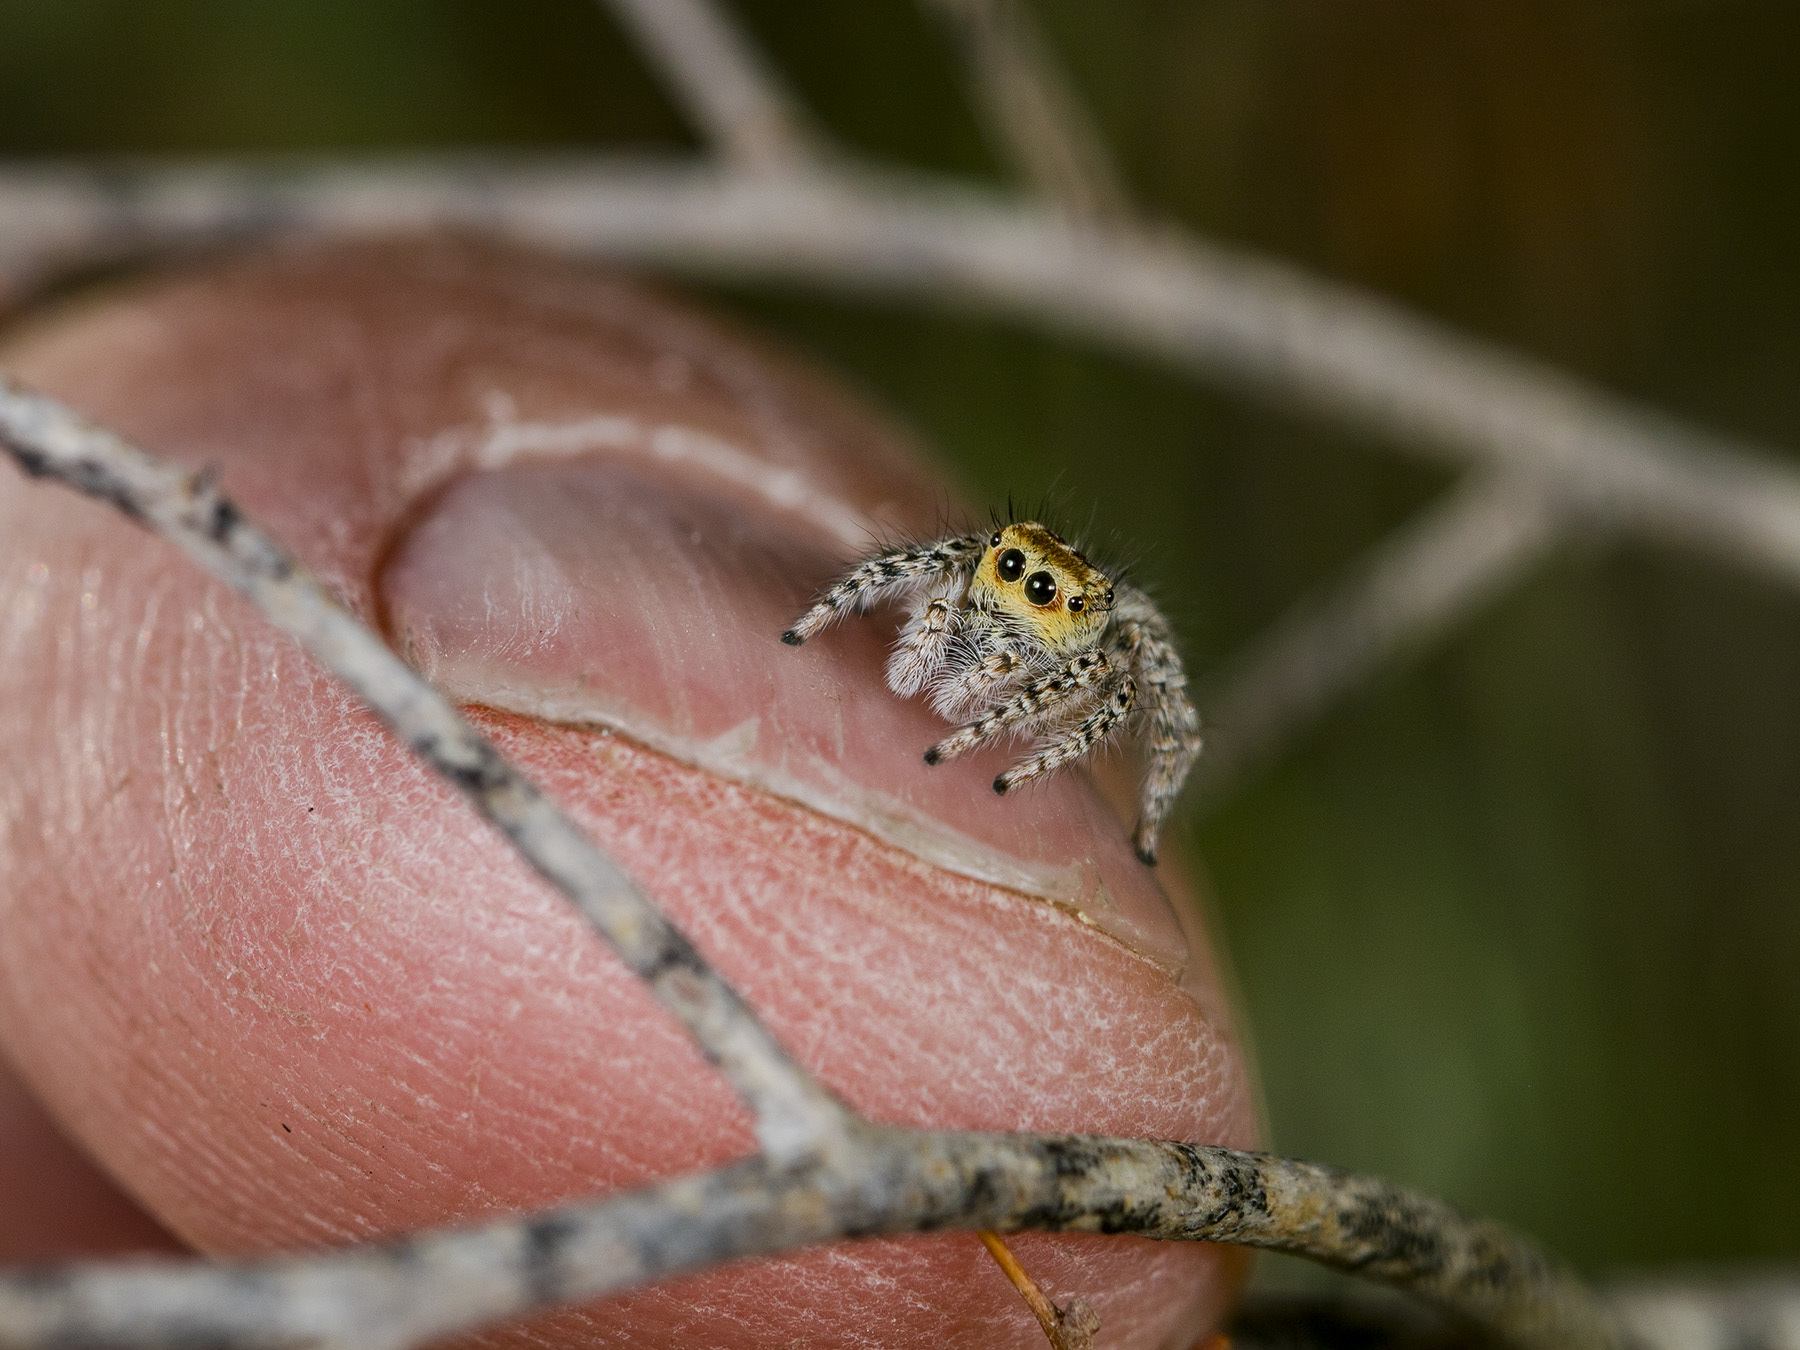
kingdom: Animalia
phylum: Arthropoda
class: Arachnida
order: Araneae
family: Salticidae
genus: Mogrus
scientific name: Mogrus larisae
